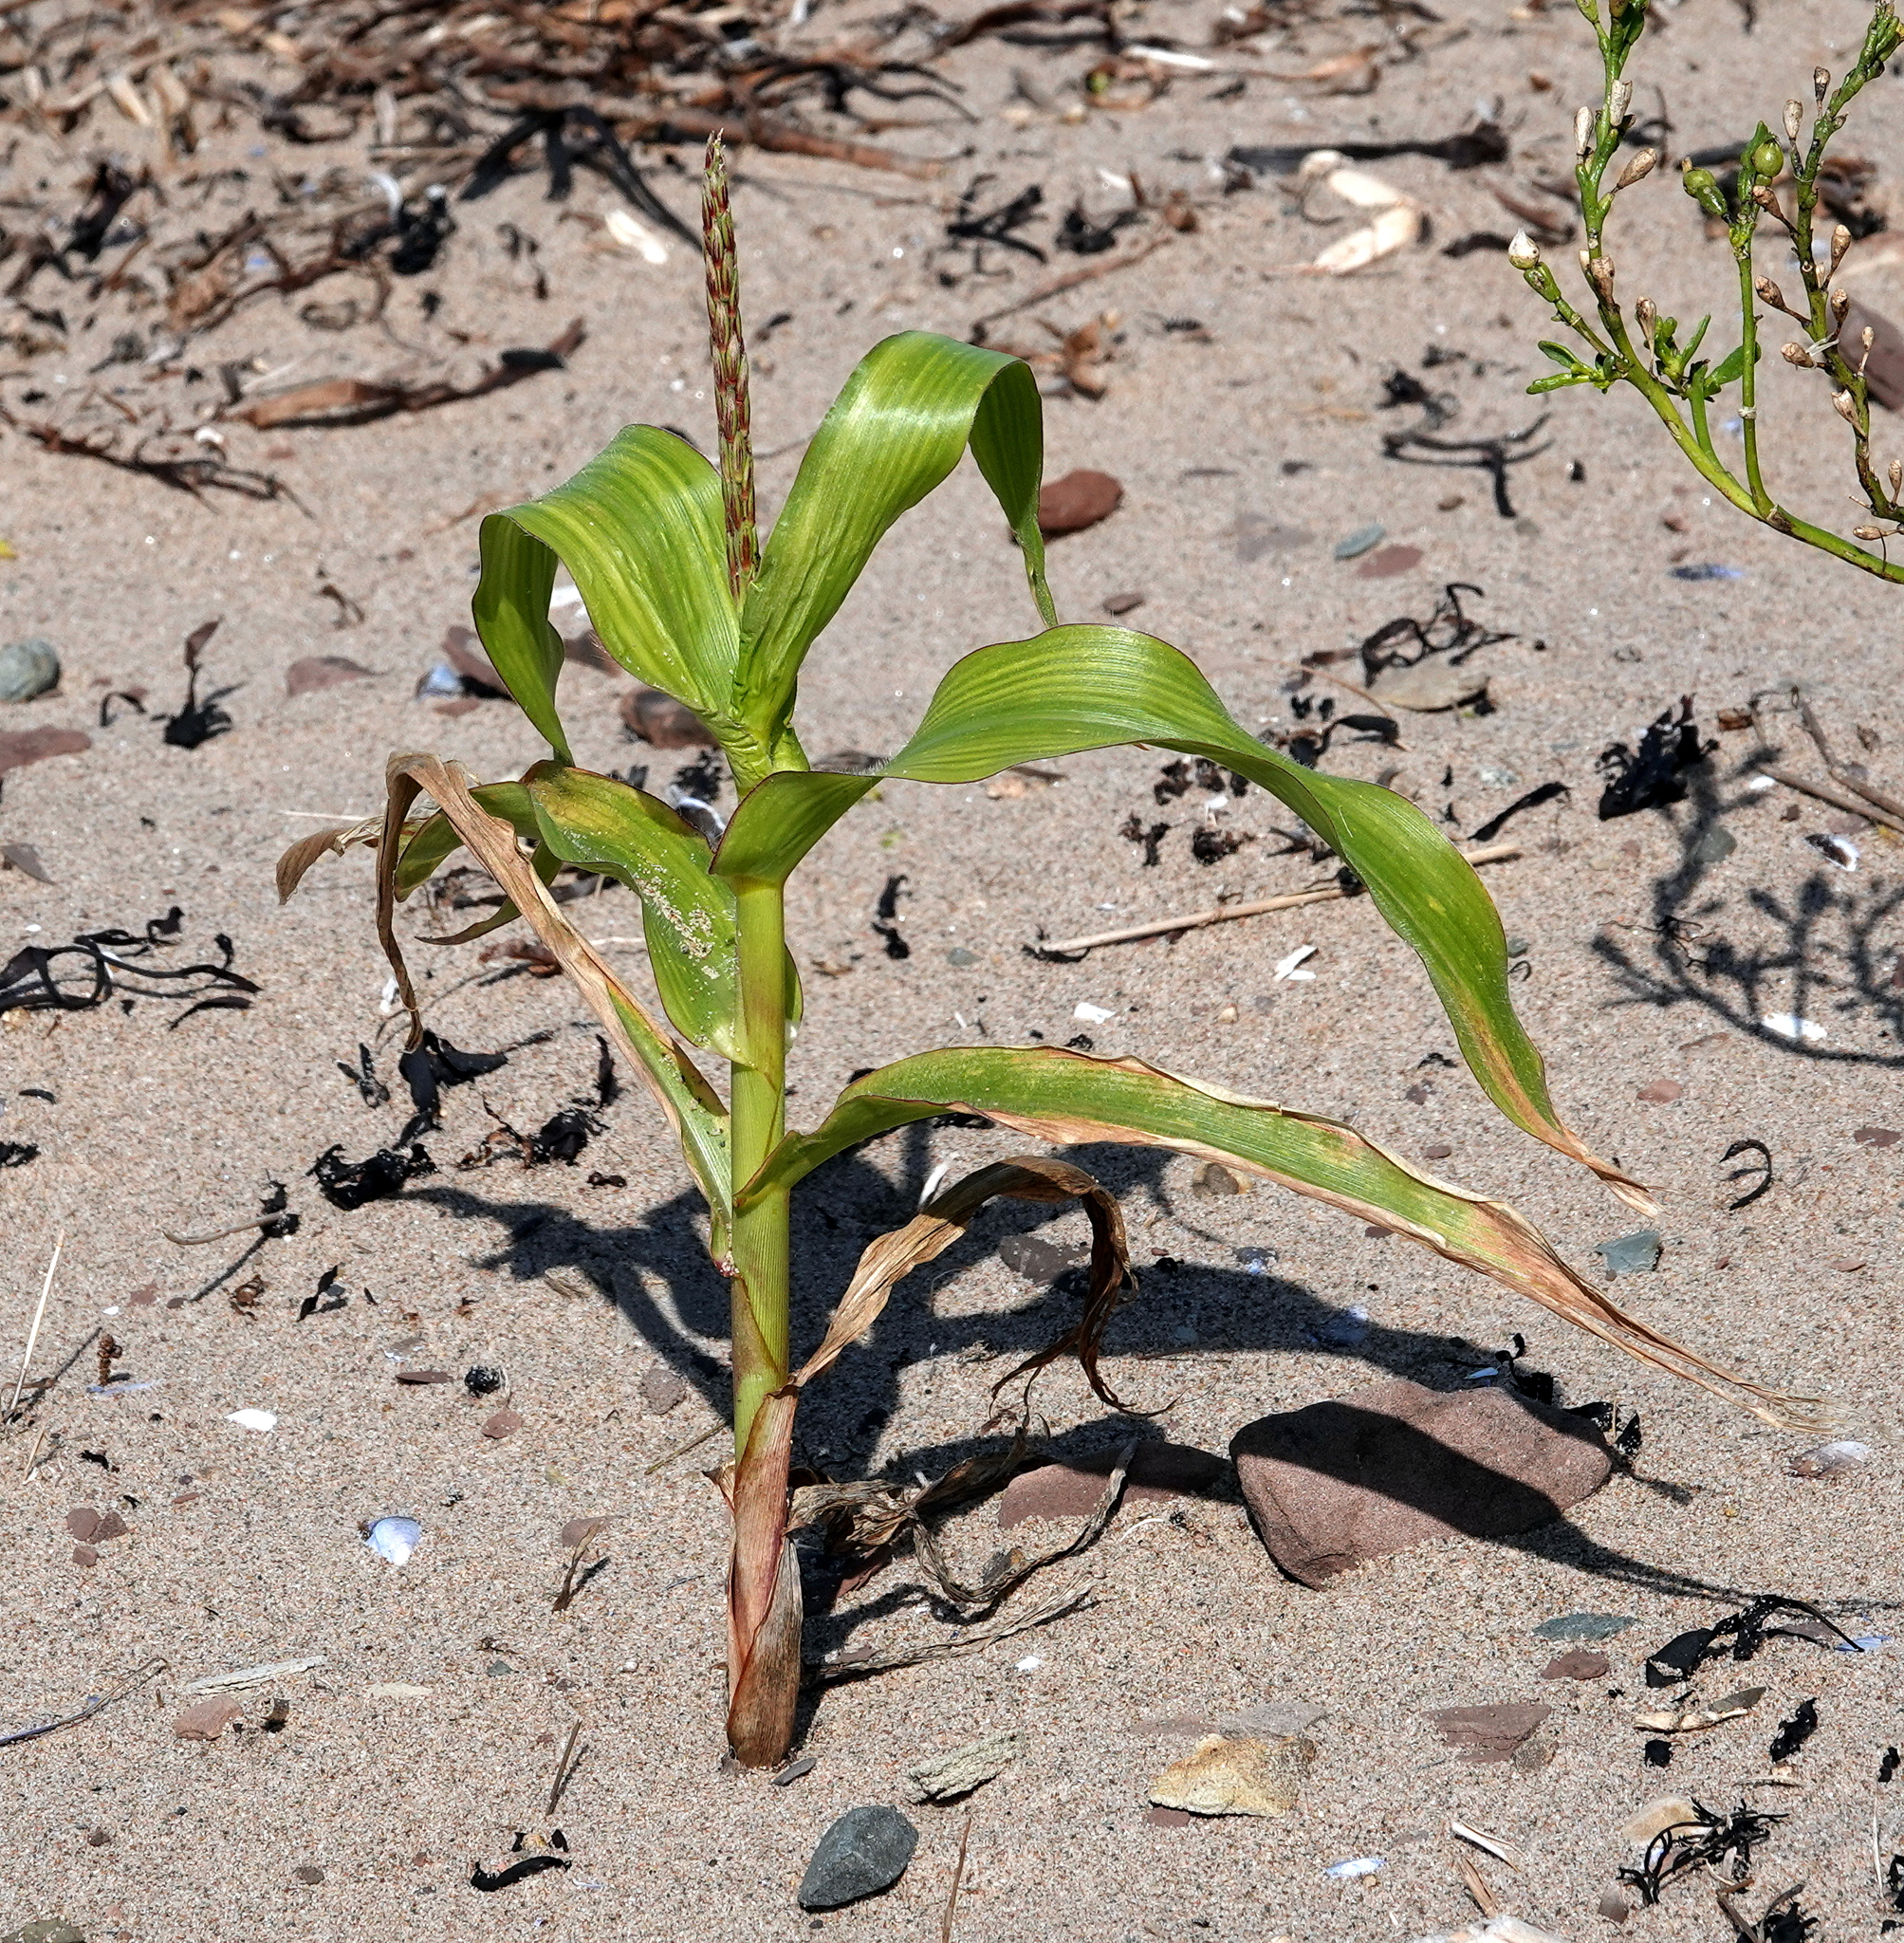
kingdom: Plantae
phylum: Tracheophyta
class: Liliopsida
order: Poales
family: Poaceae
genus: Zea
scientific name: Zea mays
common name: Maize
